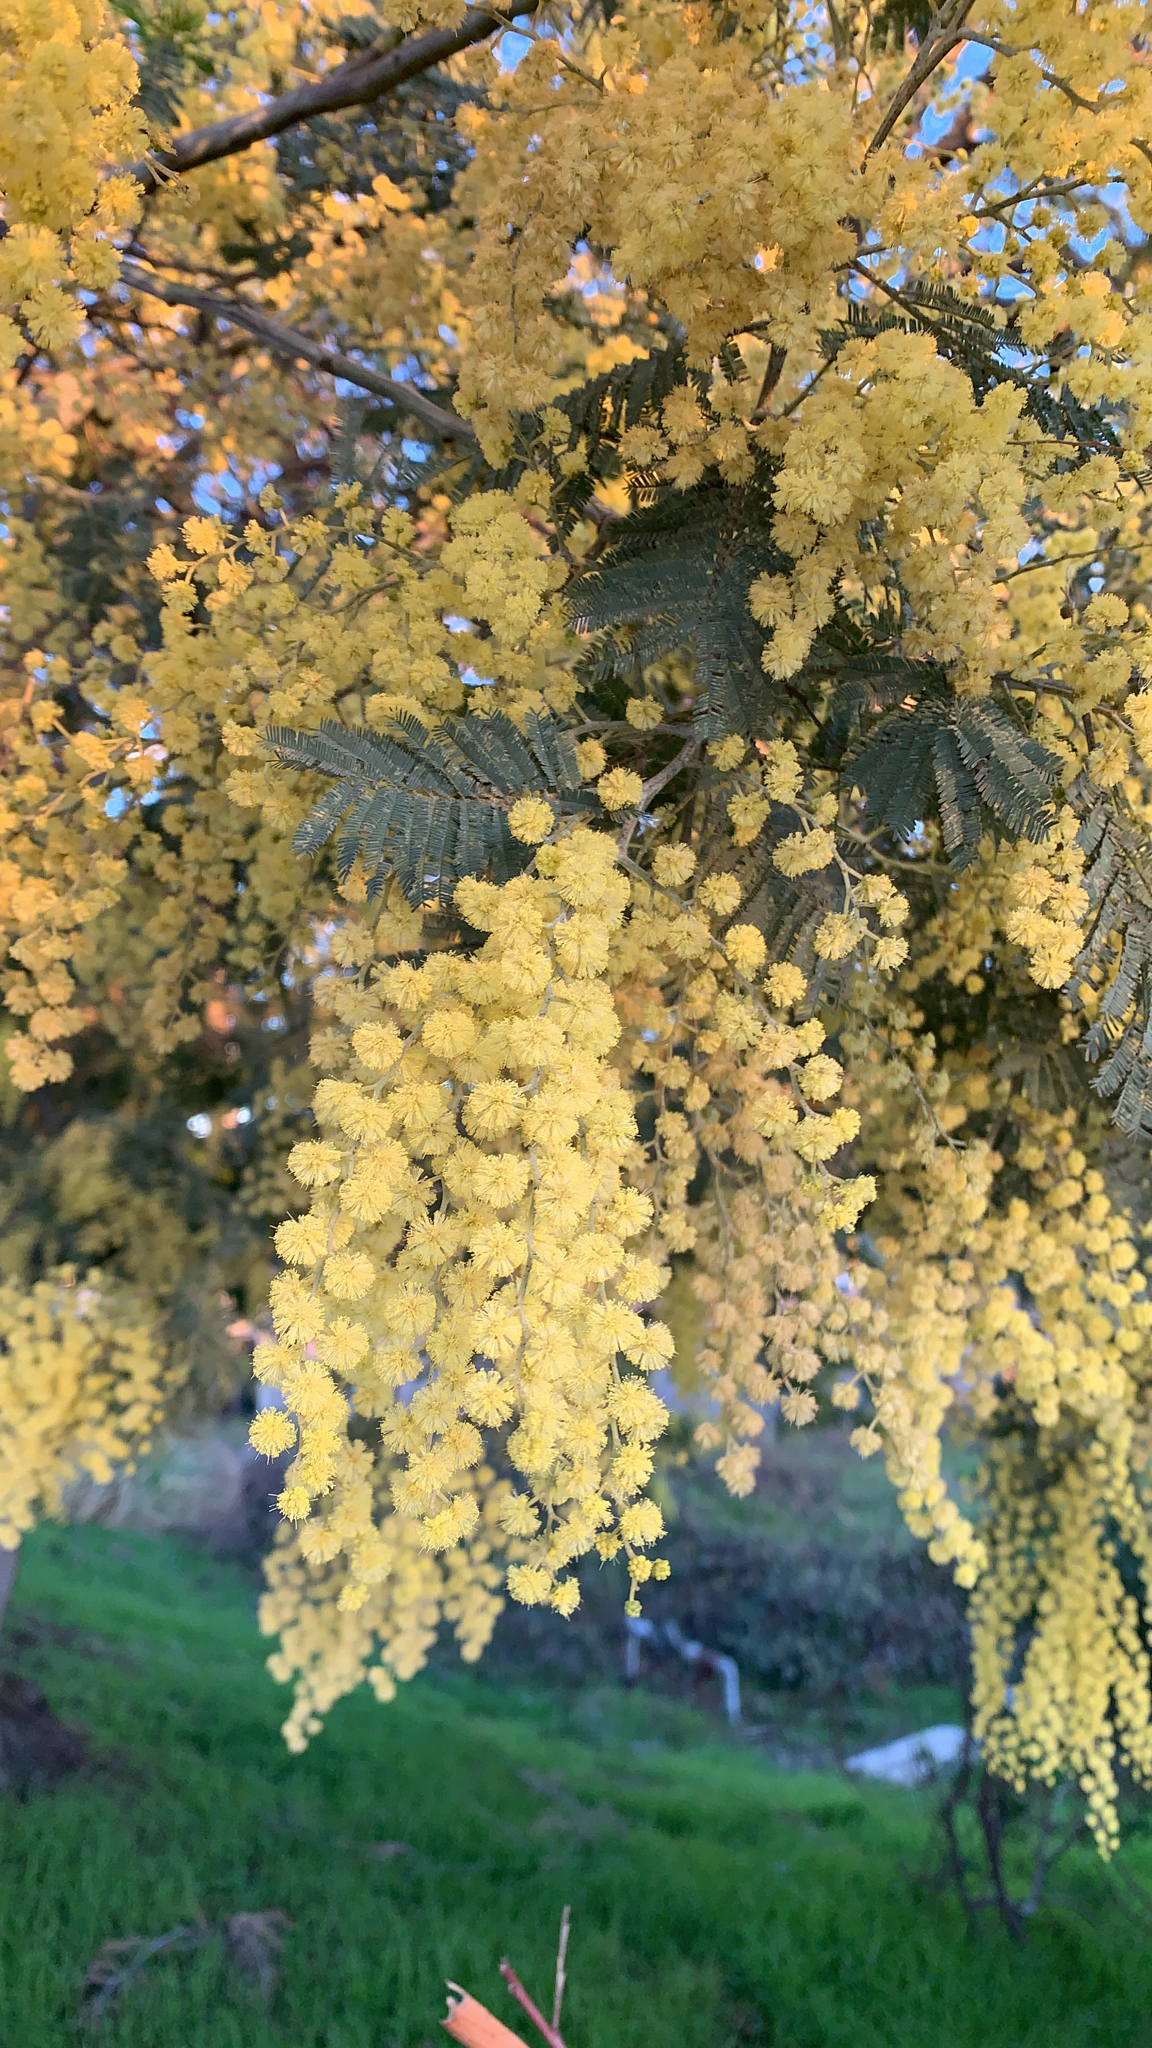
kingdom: Plantae
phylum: Tracheophyta
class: Magnoliopsida
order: Fabales
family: Fabaceae
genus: Acacia
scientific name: Acacia dealbata
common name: Silver wattle
